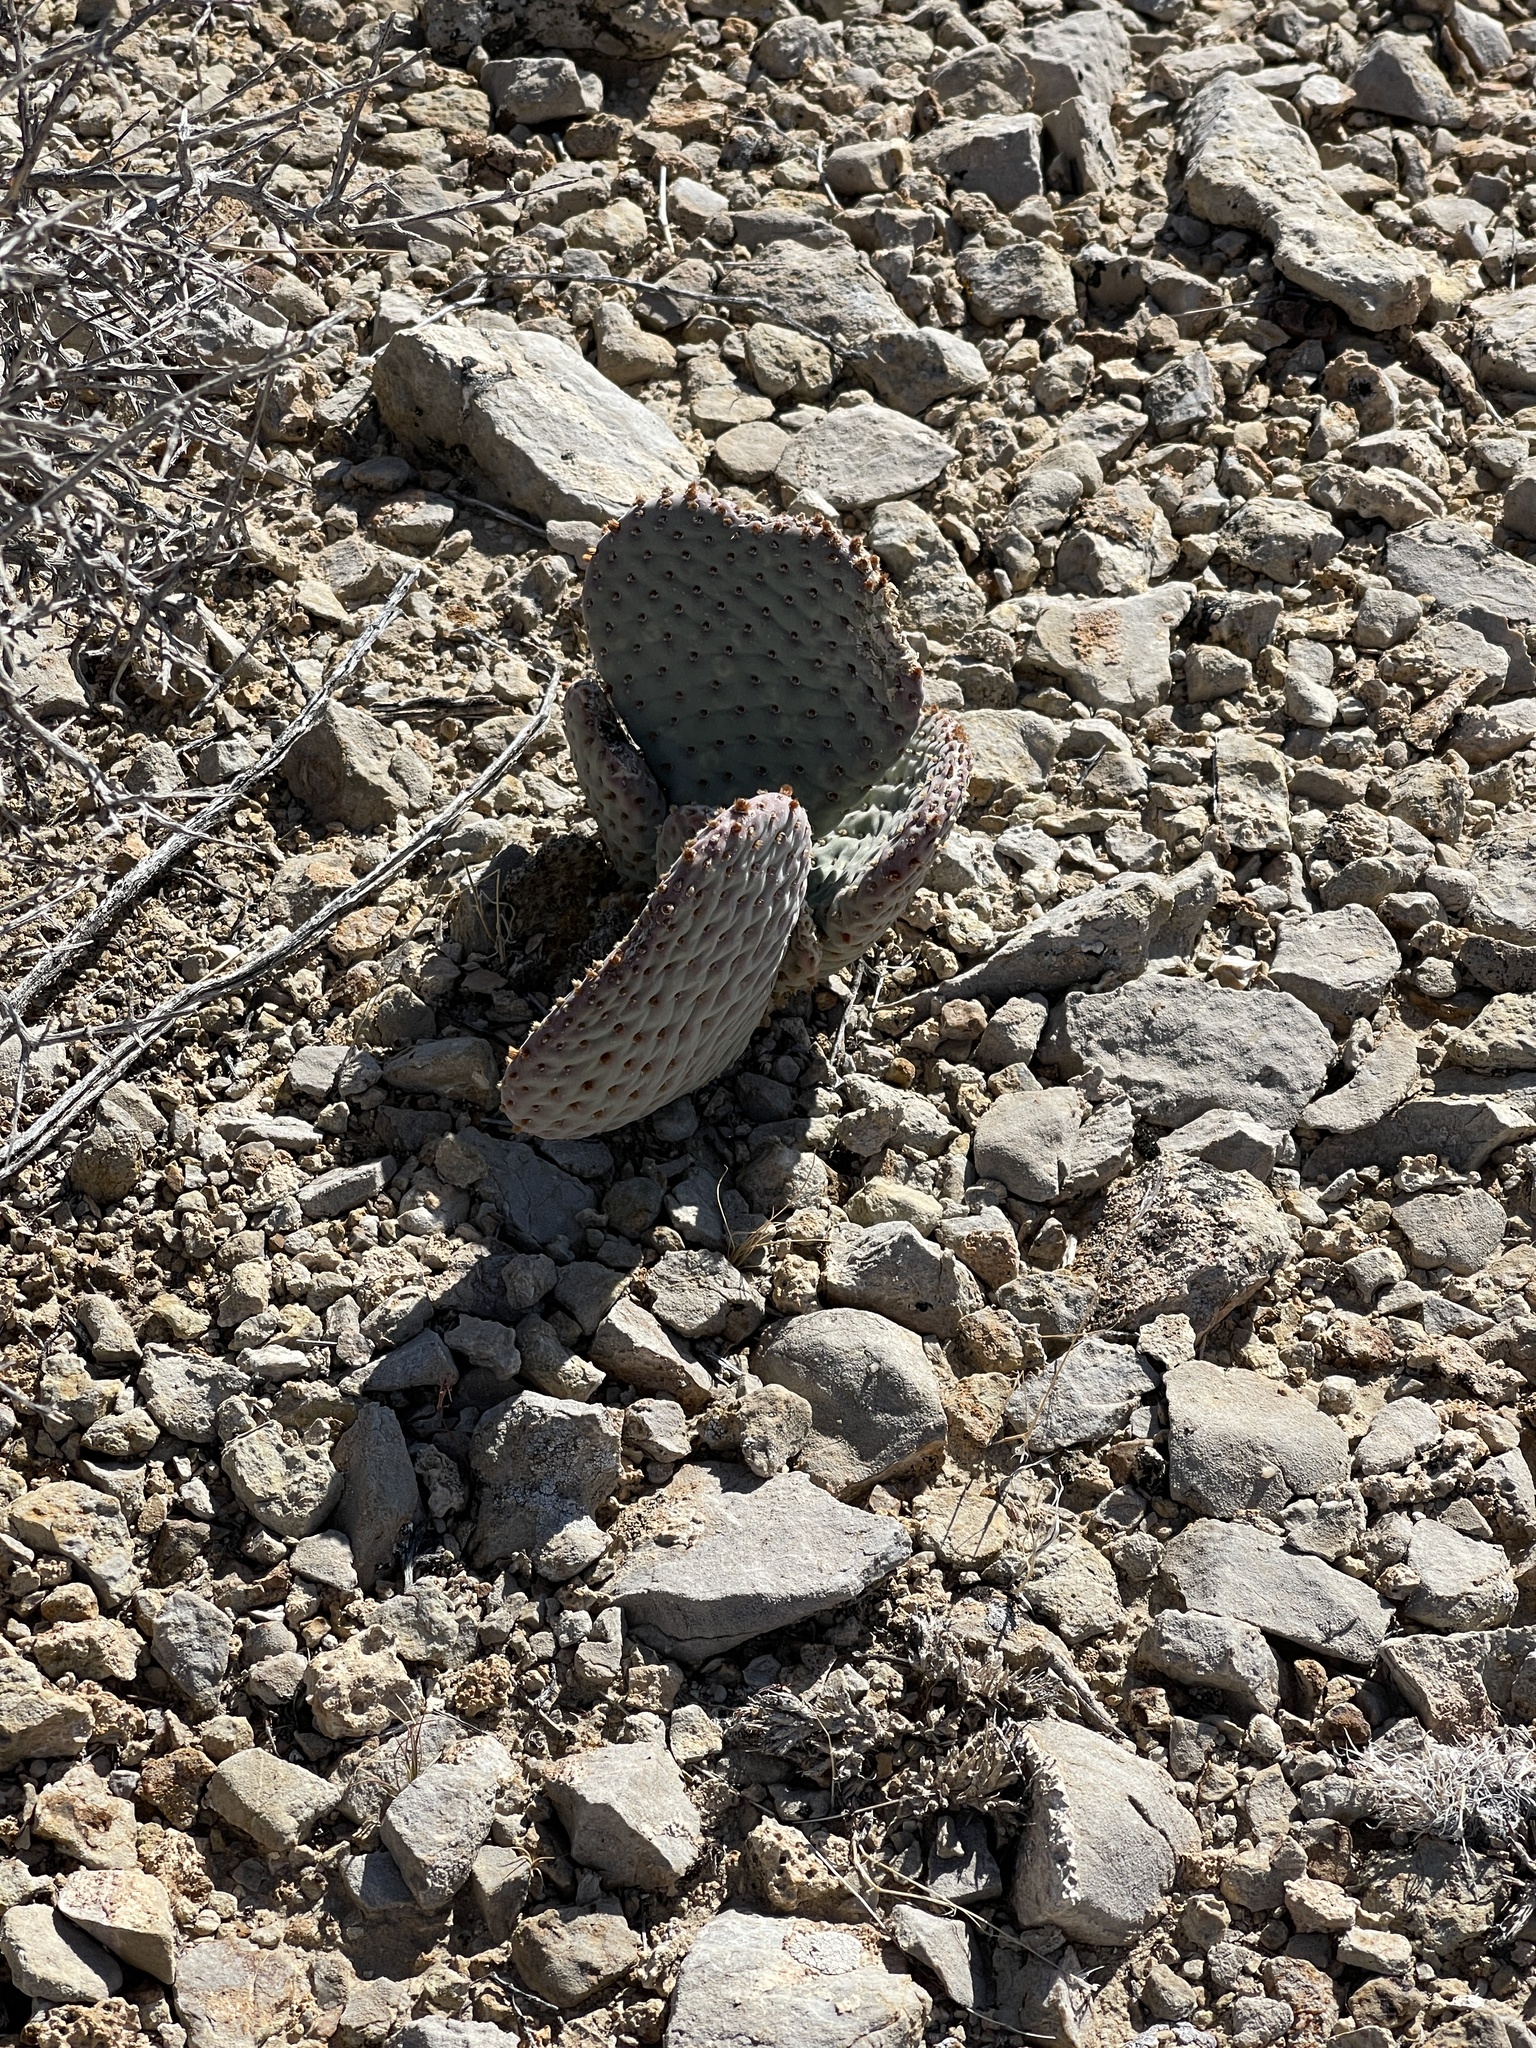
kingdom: Plantae
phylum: Tracheophyta
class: Magnoliopsida
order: Caryophyllales
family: Cactaceae
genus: Opuntia
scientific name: Opuntia basilaris
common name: Beavertail prickly-pear
